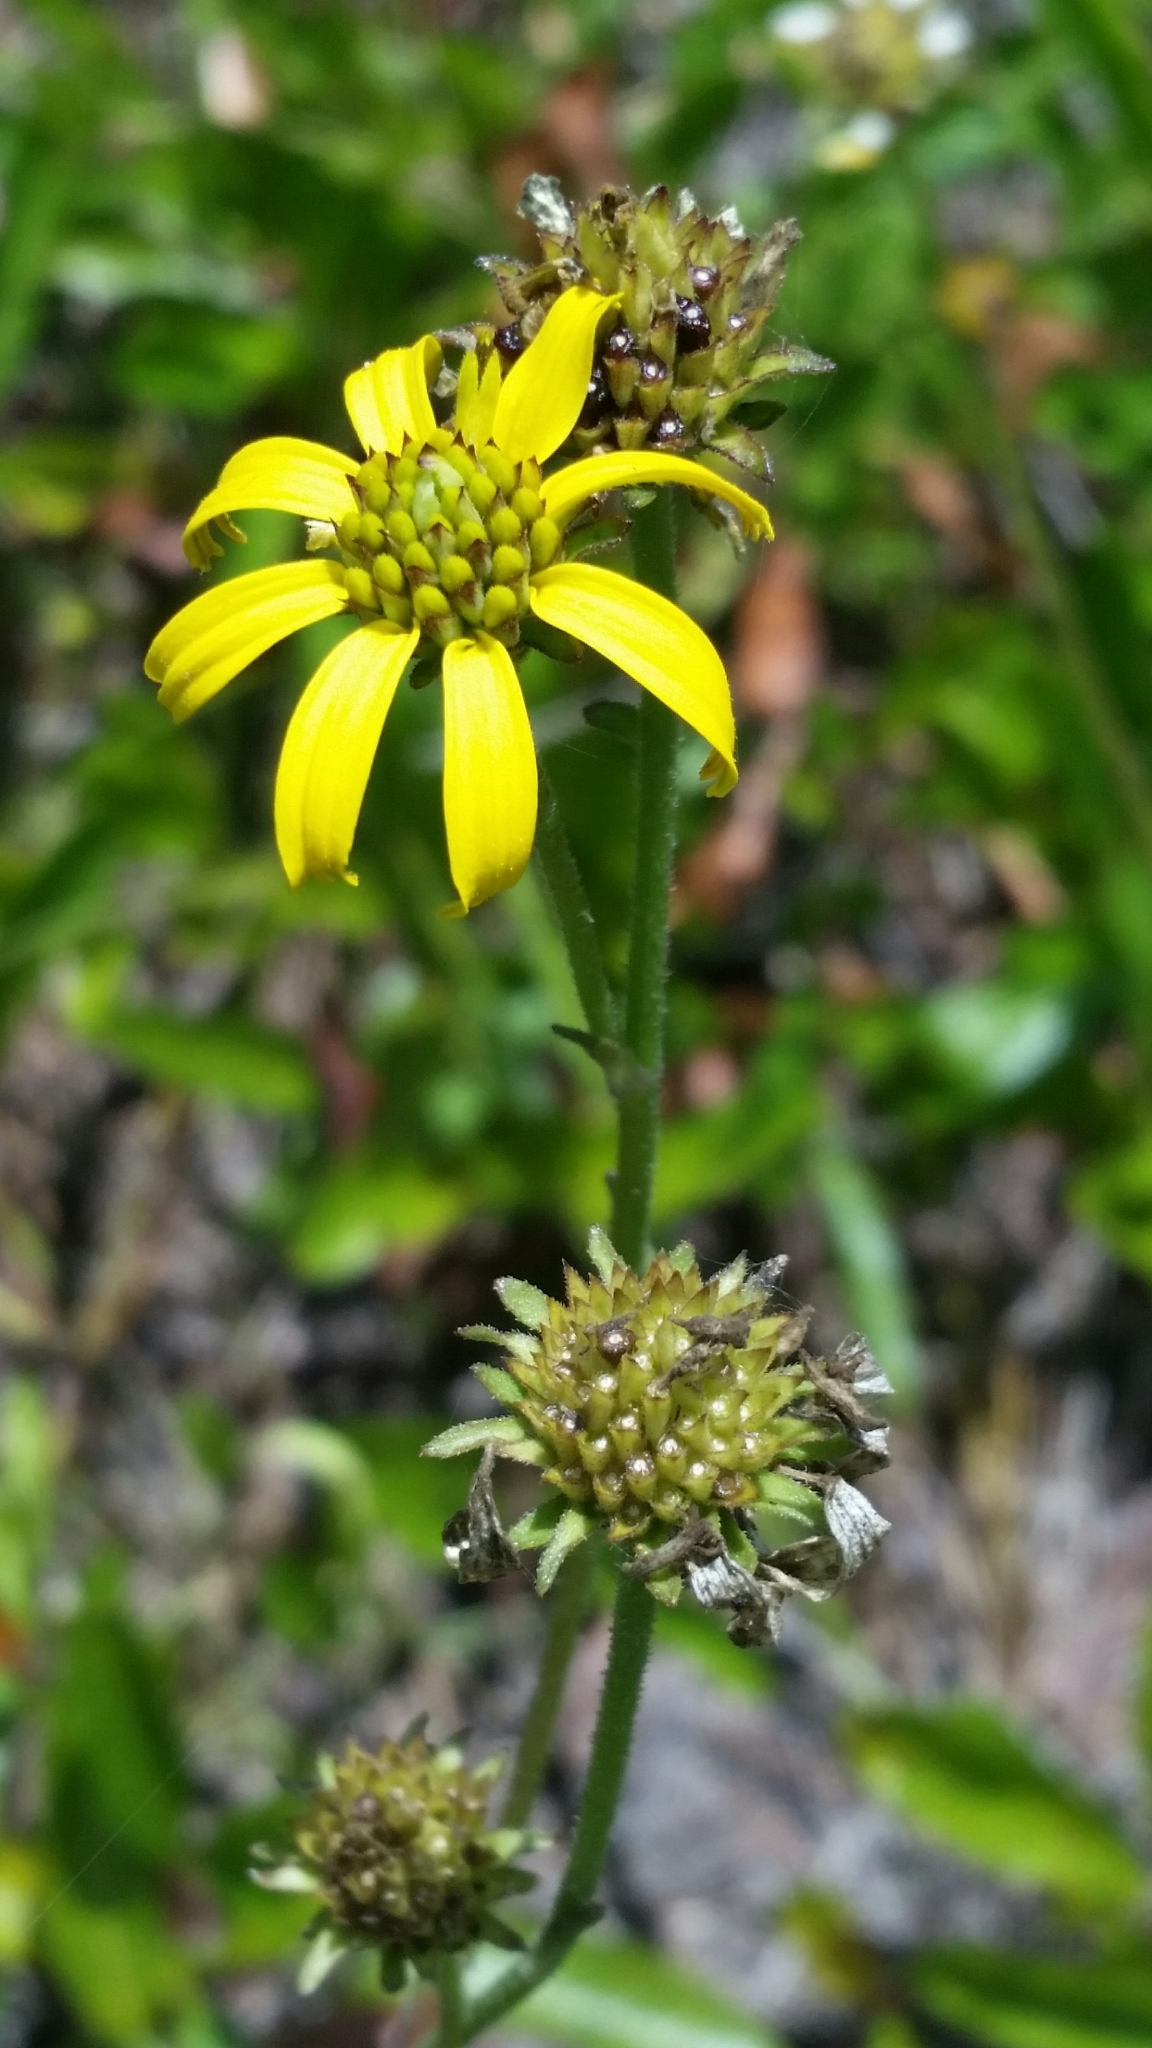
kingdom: Plantae
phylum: Tracheophyta
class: Magnoliopsida
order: Asterales
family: Asteraceae
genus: Verbesina
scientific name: Verbesina heterophylla
